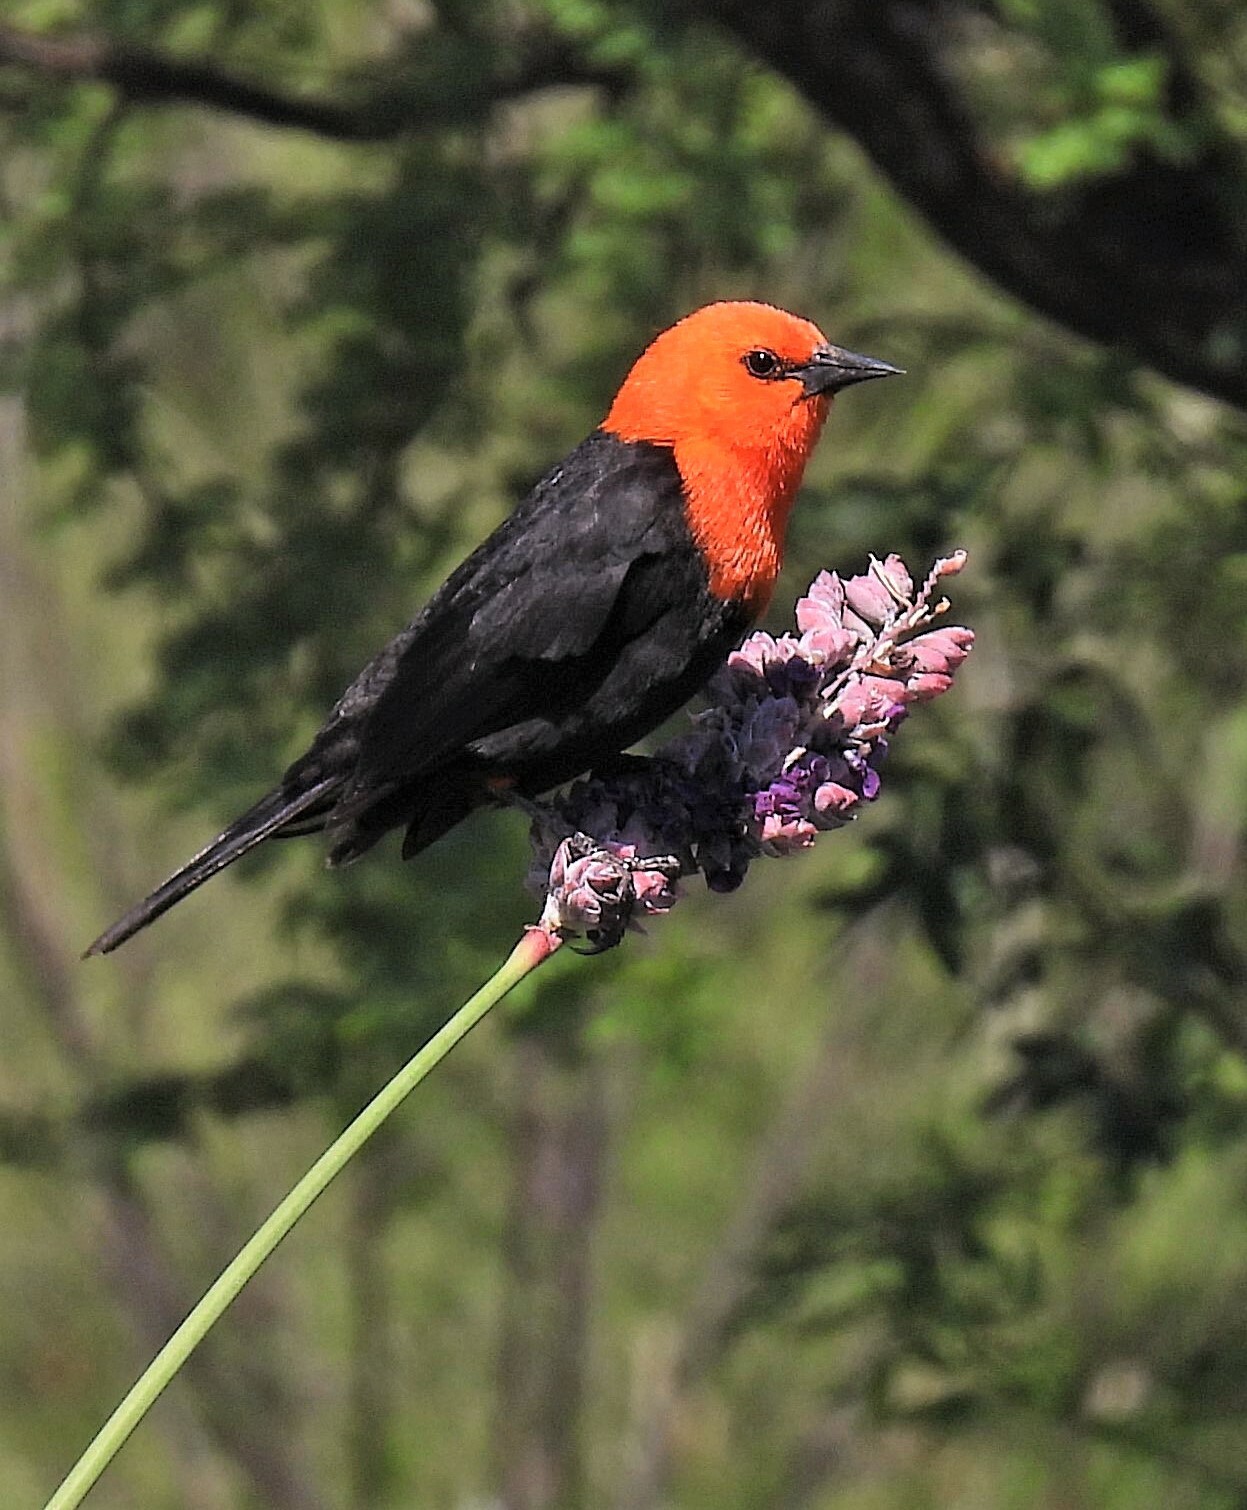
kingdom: Animalia
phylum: Chordata
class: Aves
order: Passeriformes
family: Icteridae
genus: Amblyramphus
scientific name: Amblyramphus holosericeus
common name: Scarlet-headed blackbird
